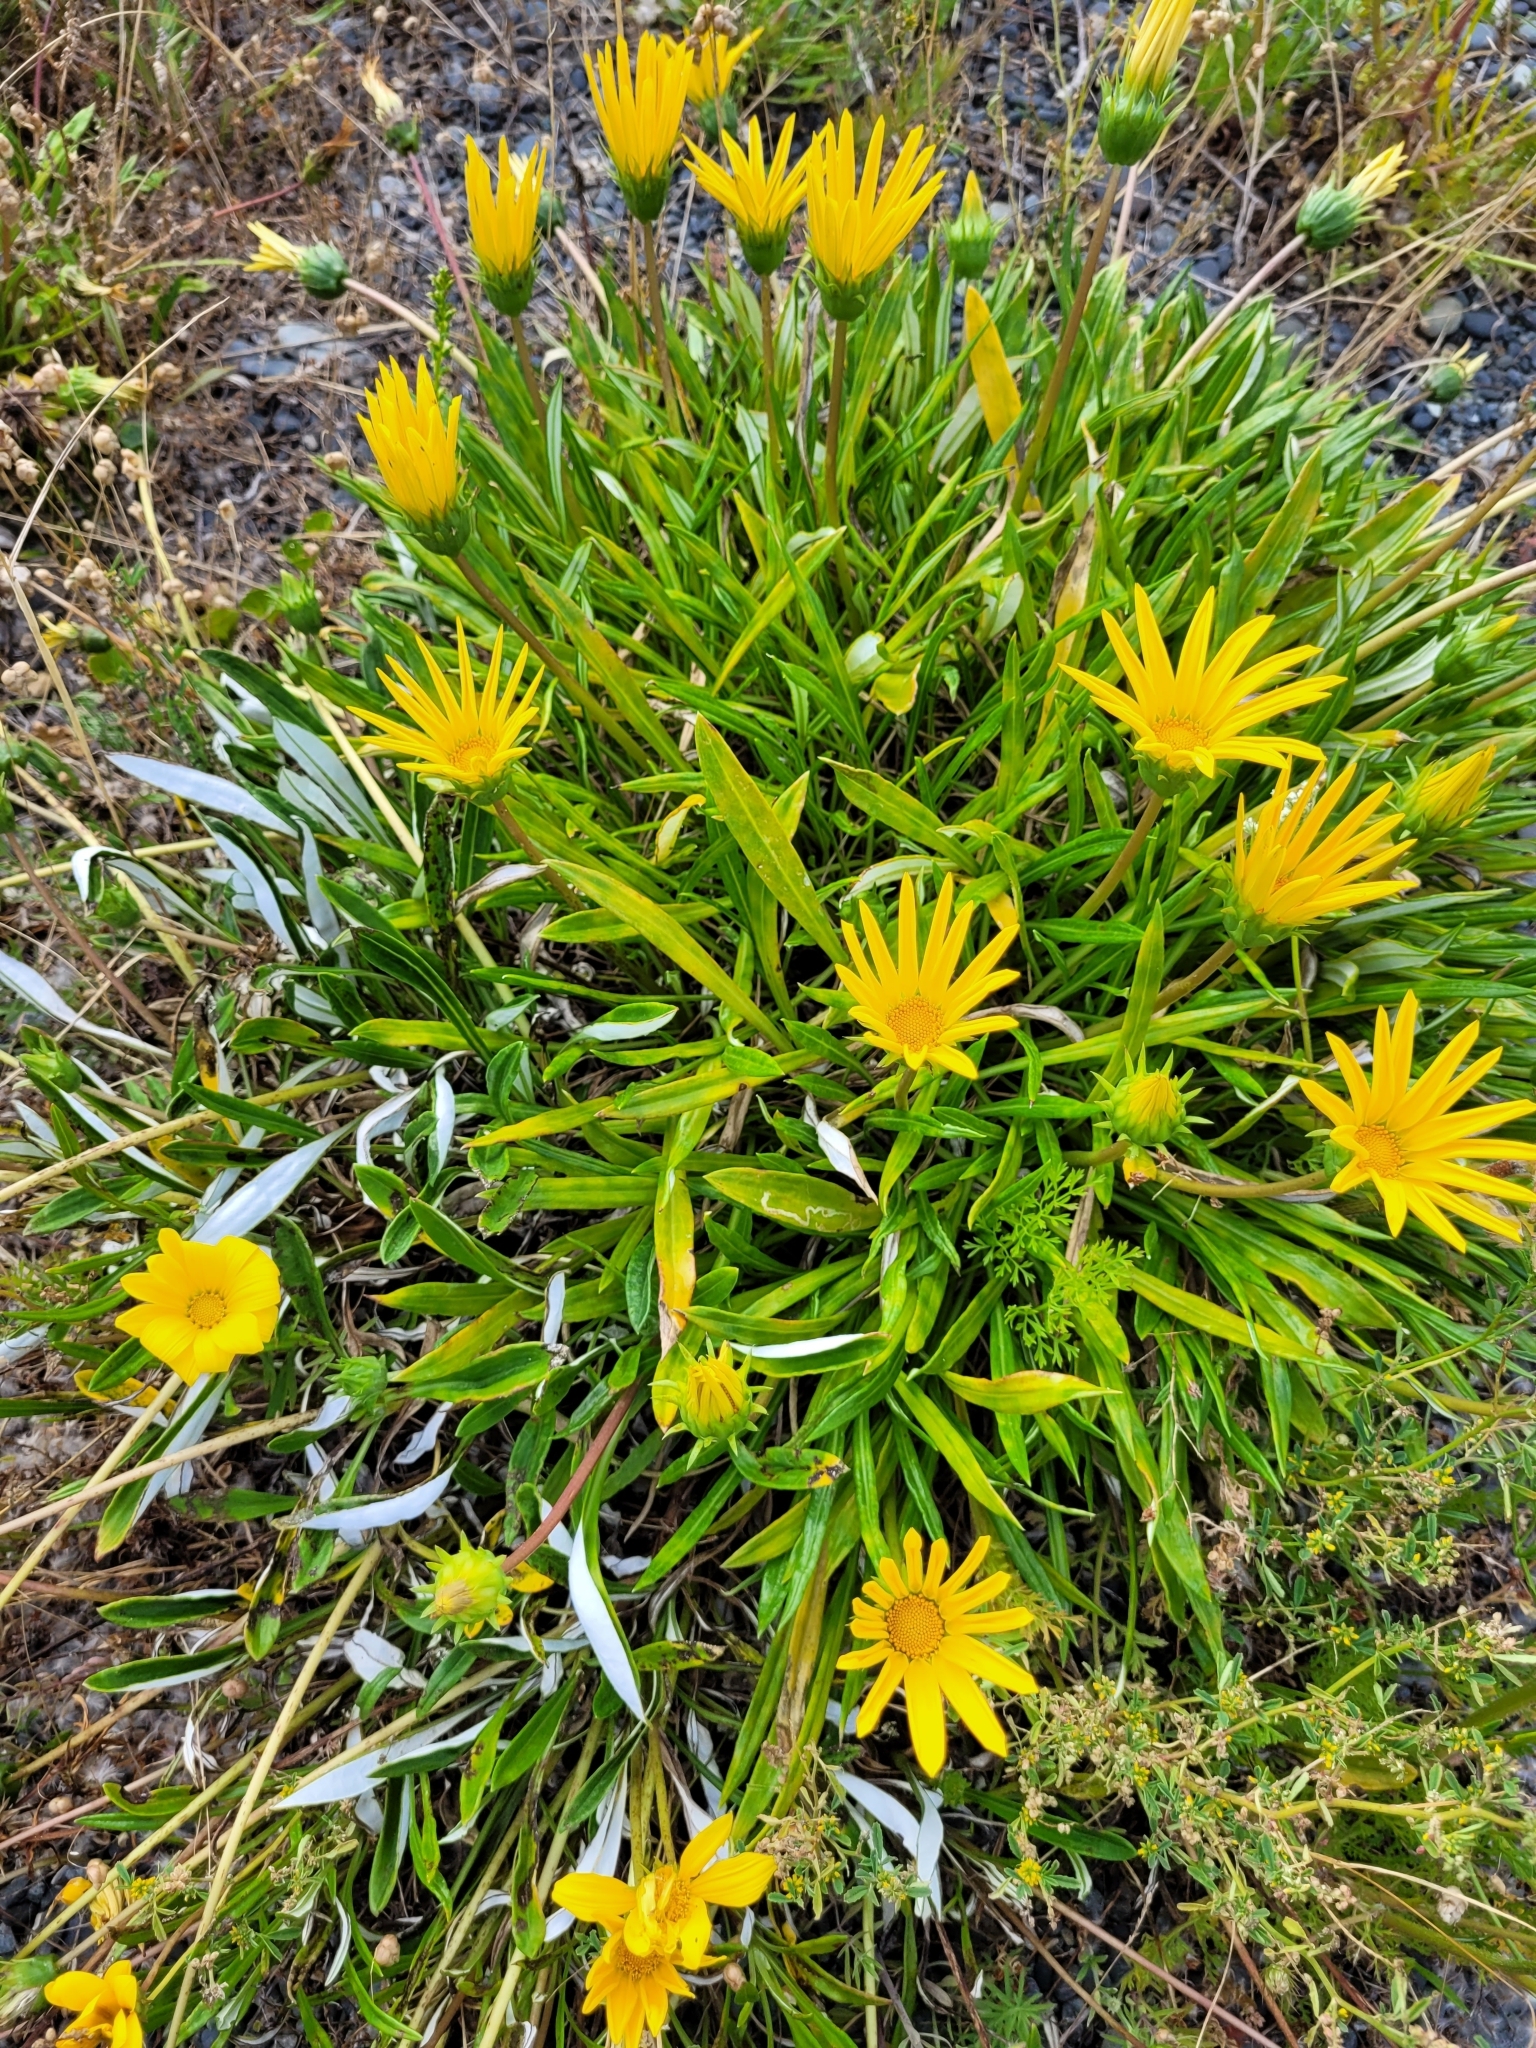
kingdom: Plantae
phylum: Tracheophyta
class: Magnoliopsida
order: Asterales
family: Asteraceae
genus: Gazania
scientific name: Gazania rigens
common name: Treasureflower
